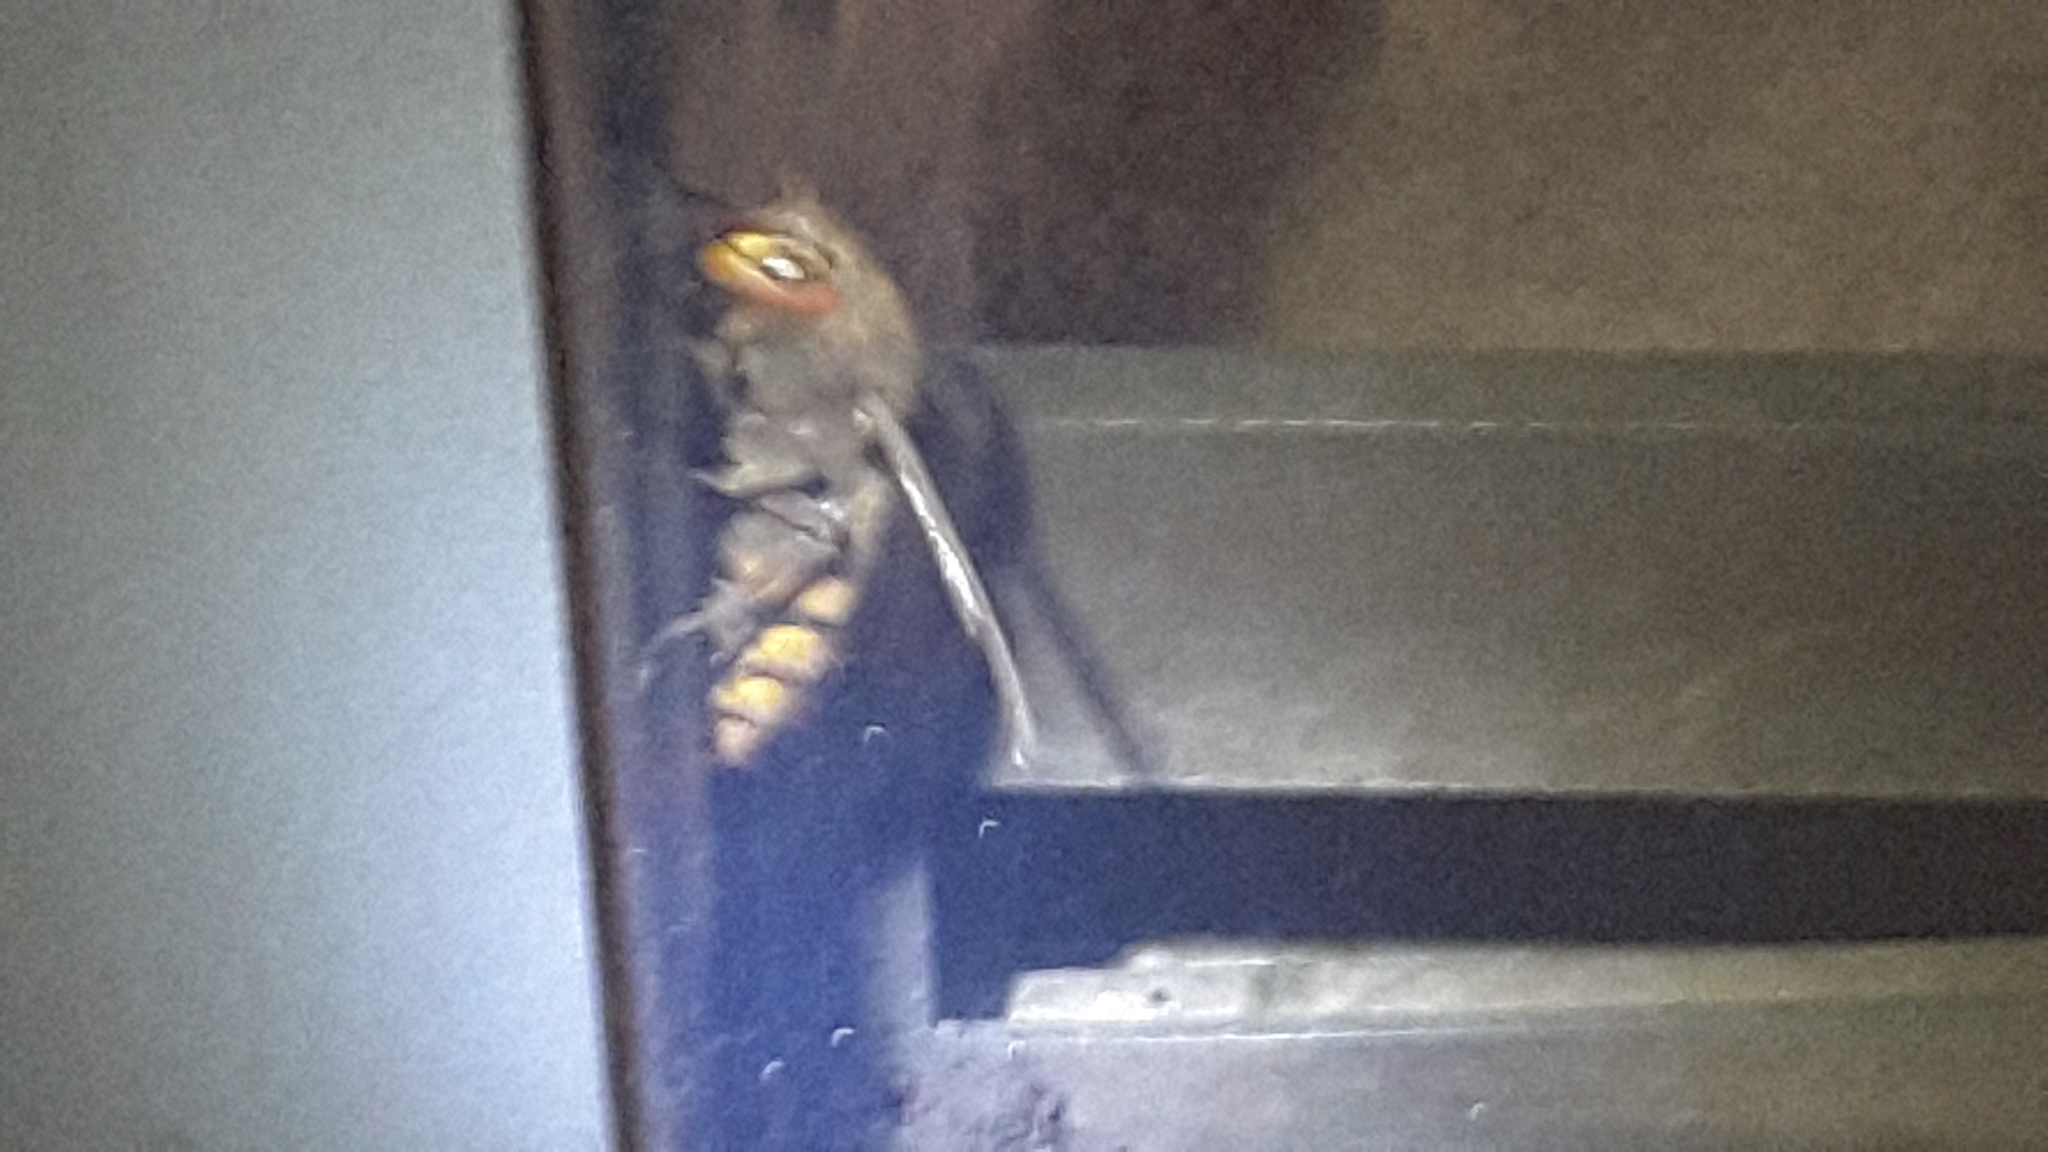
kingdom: Animalia
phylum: Arthropoda
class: Insecta
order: Hymenoptera
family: Vespidae
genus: Vespa
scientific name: Vespa crabro
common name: Hornet
